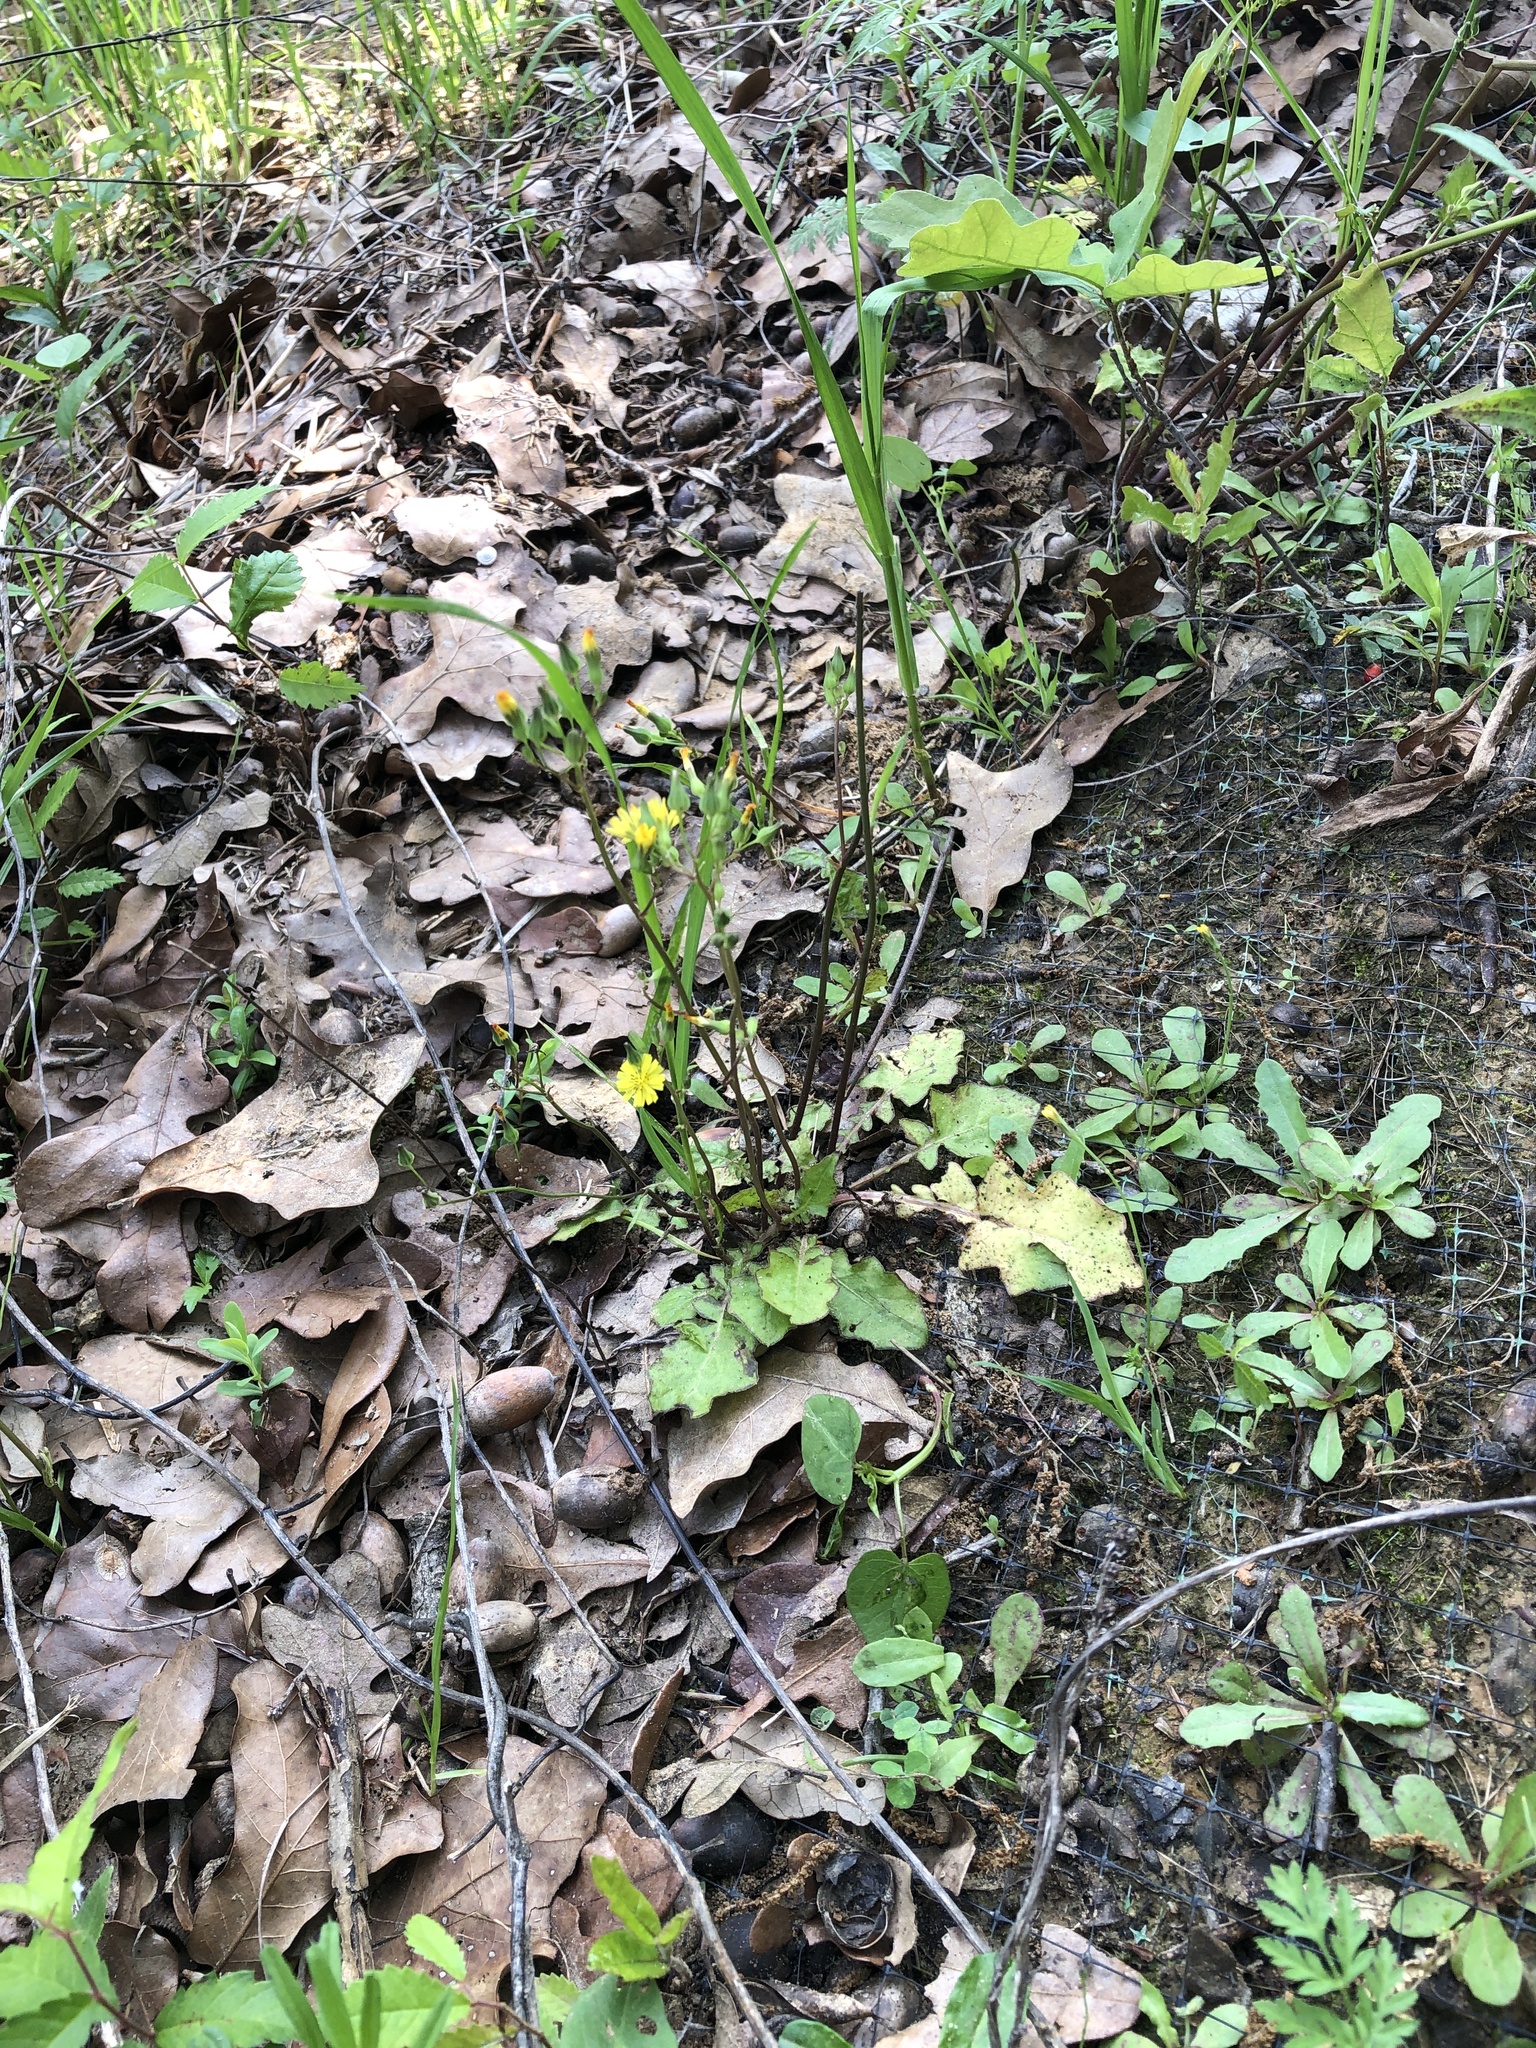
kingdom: Plantae
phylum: Tracheophyta
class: Magnoliopsida
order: Asterales
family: Asteraceae
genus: Youngia
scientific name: Youngia japonica
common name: Oriental false hawksbeard
